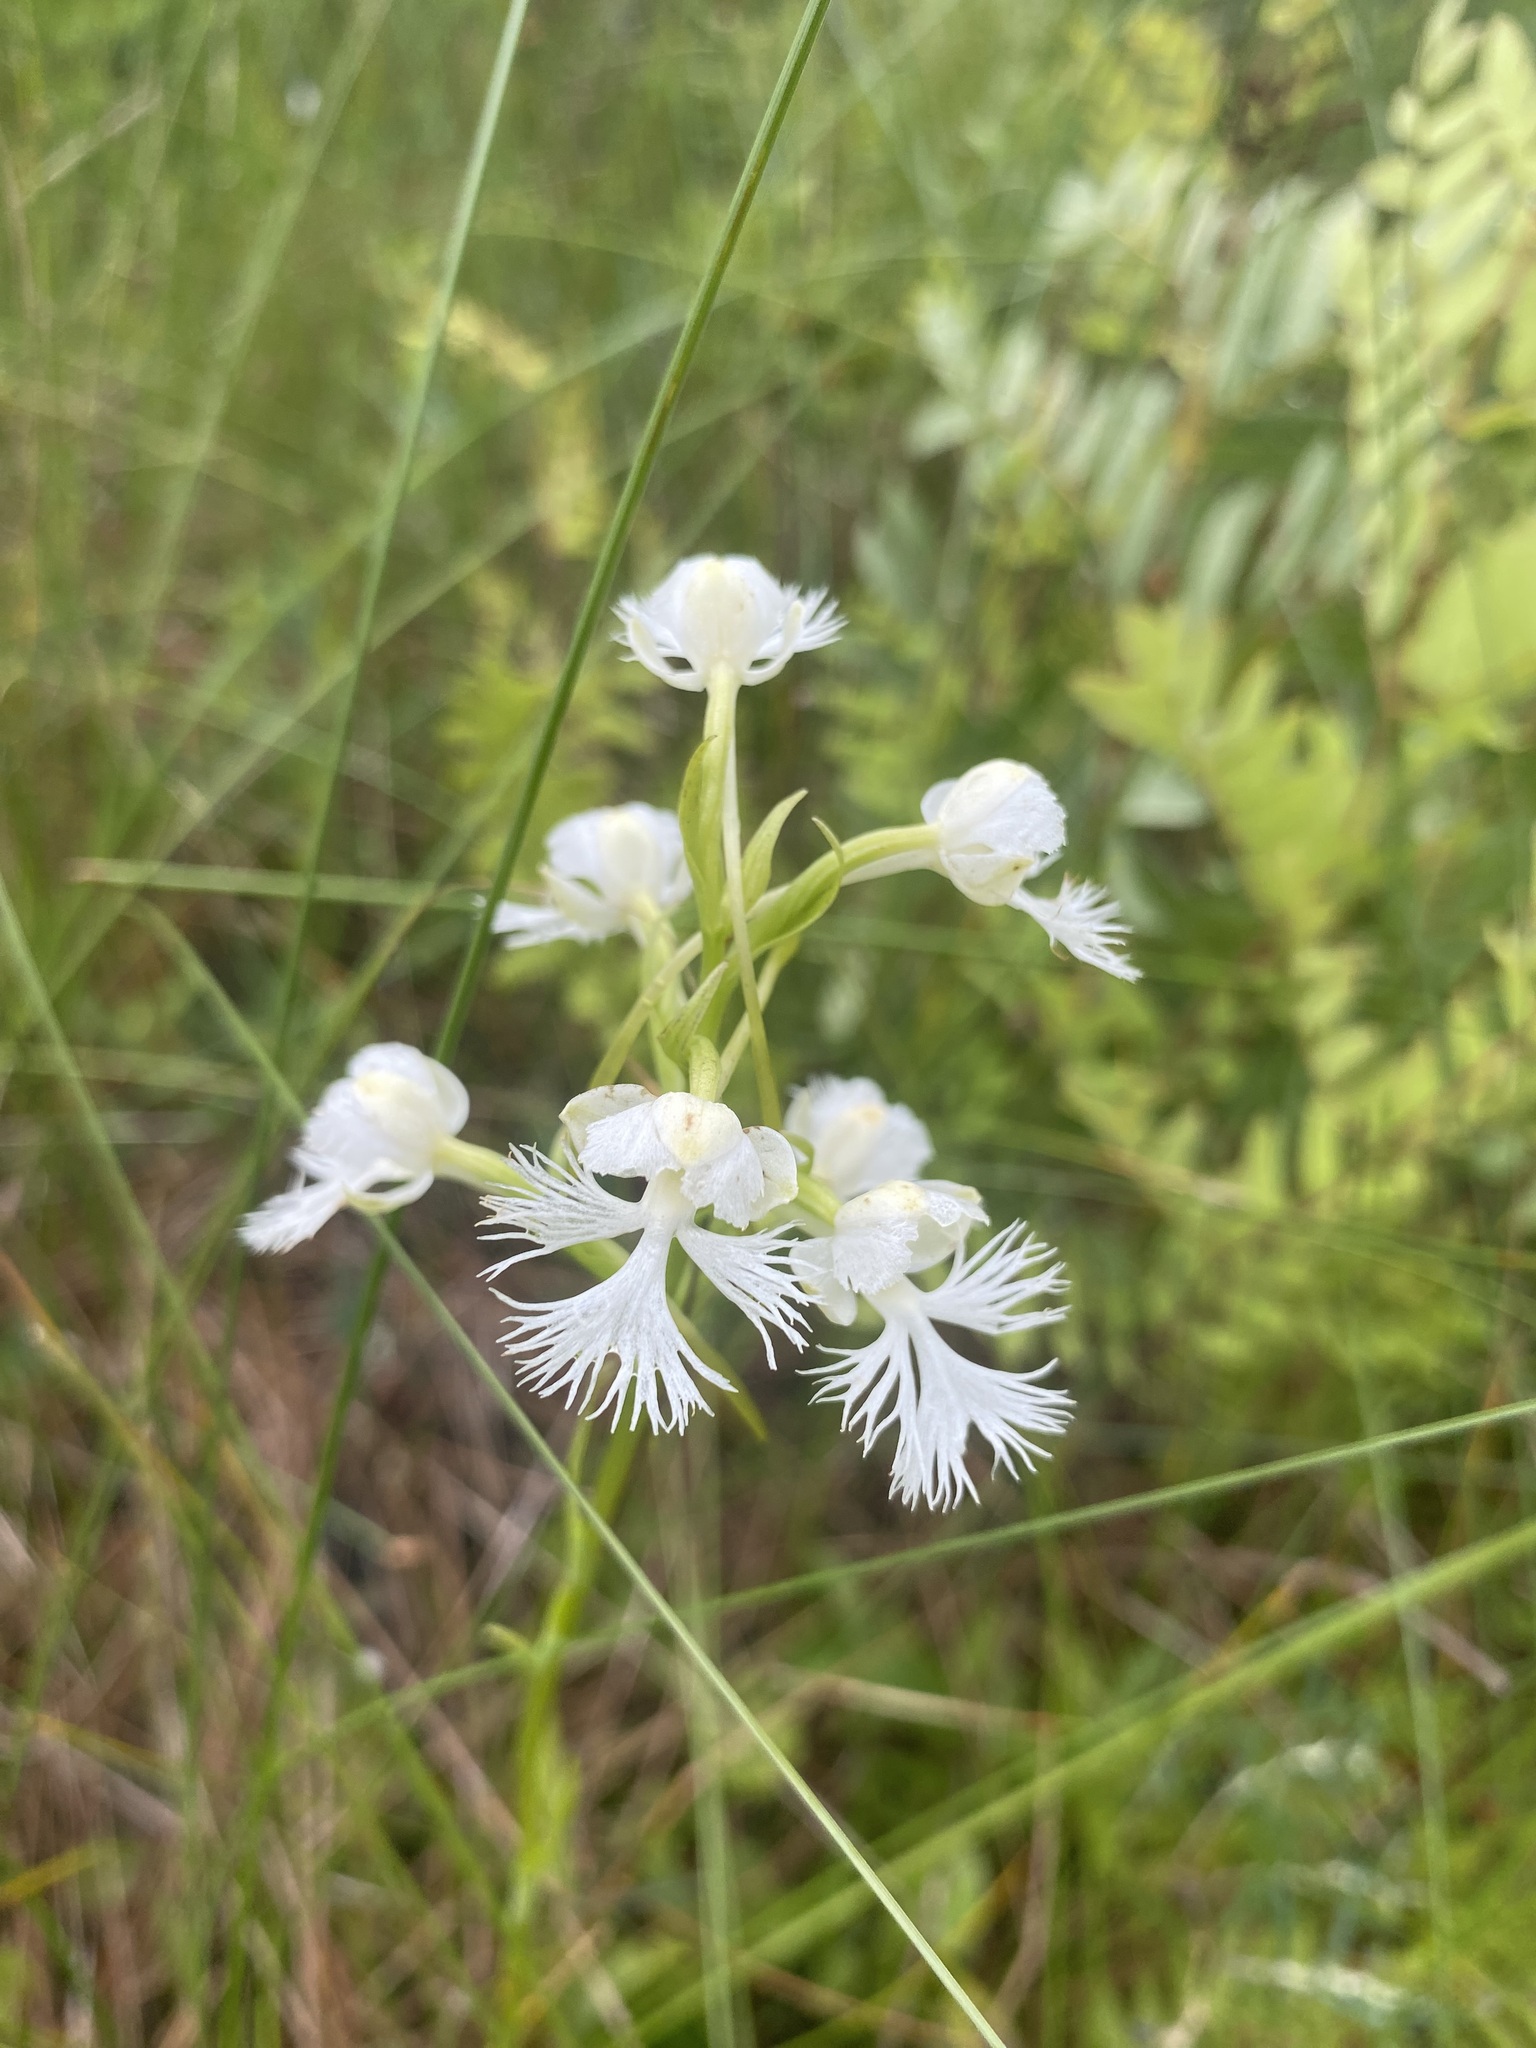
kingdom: Plantae
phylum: Tracheophyta
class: Liliopsida
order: Asparagales
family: Orchidaceae
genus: Platanthera
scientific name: Platanthera leucophaea
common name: Eastern prairie white-fringed orchid
